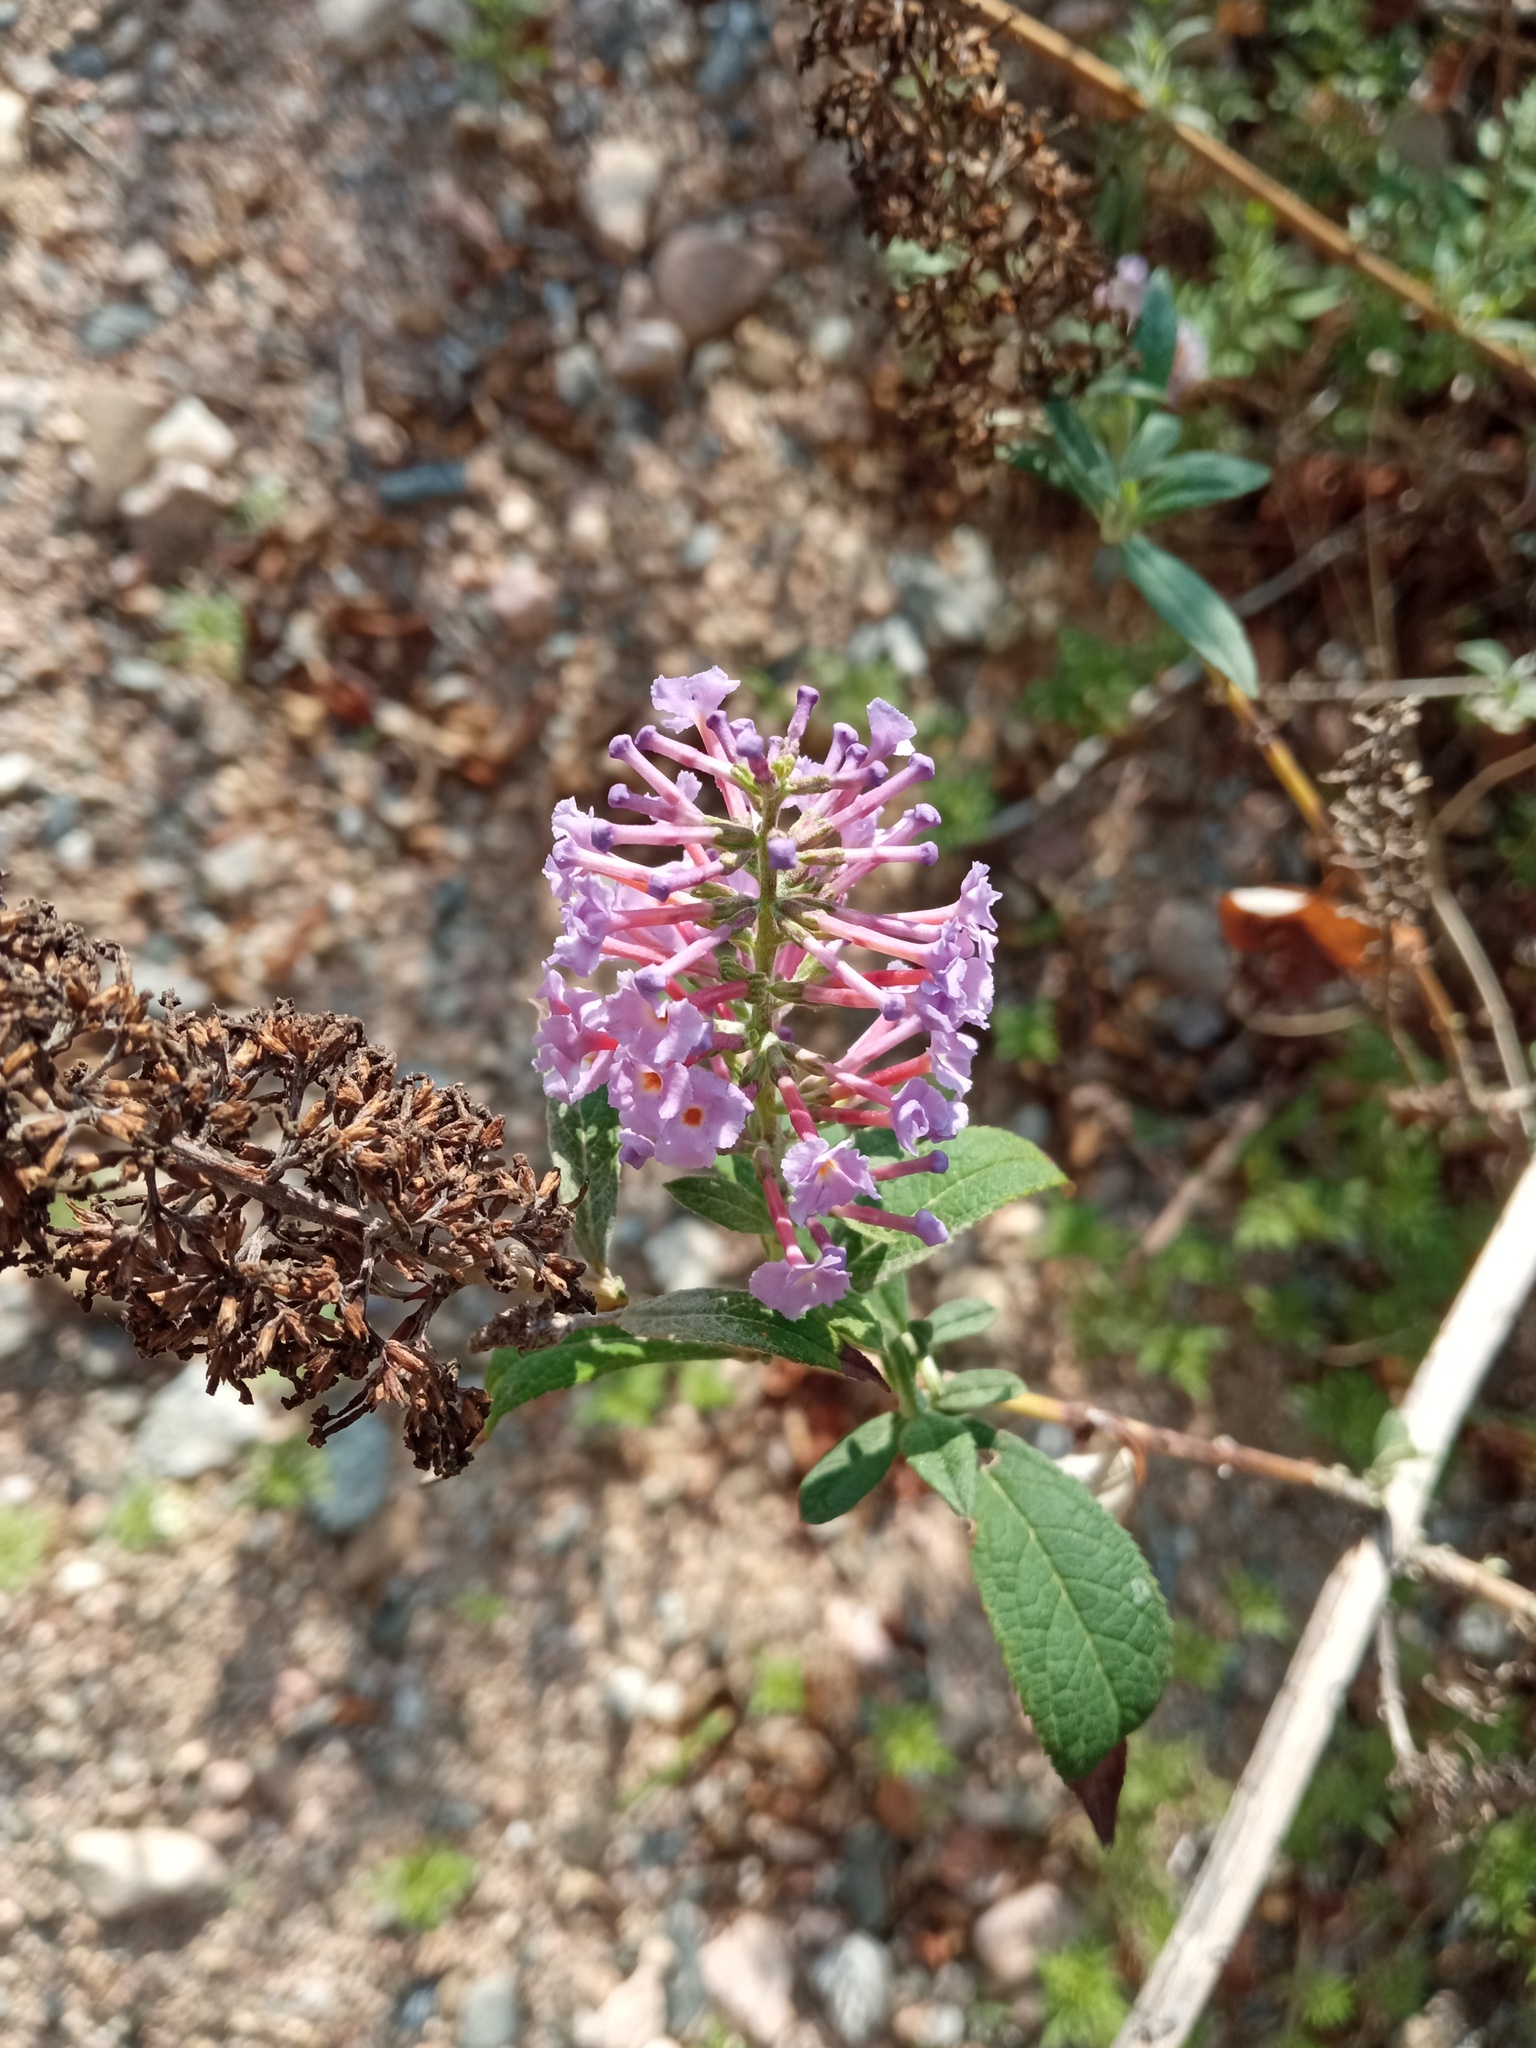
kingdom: Plantae
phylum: Tracheophyta
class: Magnoliopsida
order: Lamiales
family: Scrophulariaceae
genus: Buddleja
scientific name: Buddleja davidii
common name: Butterfly-bush
